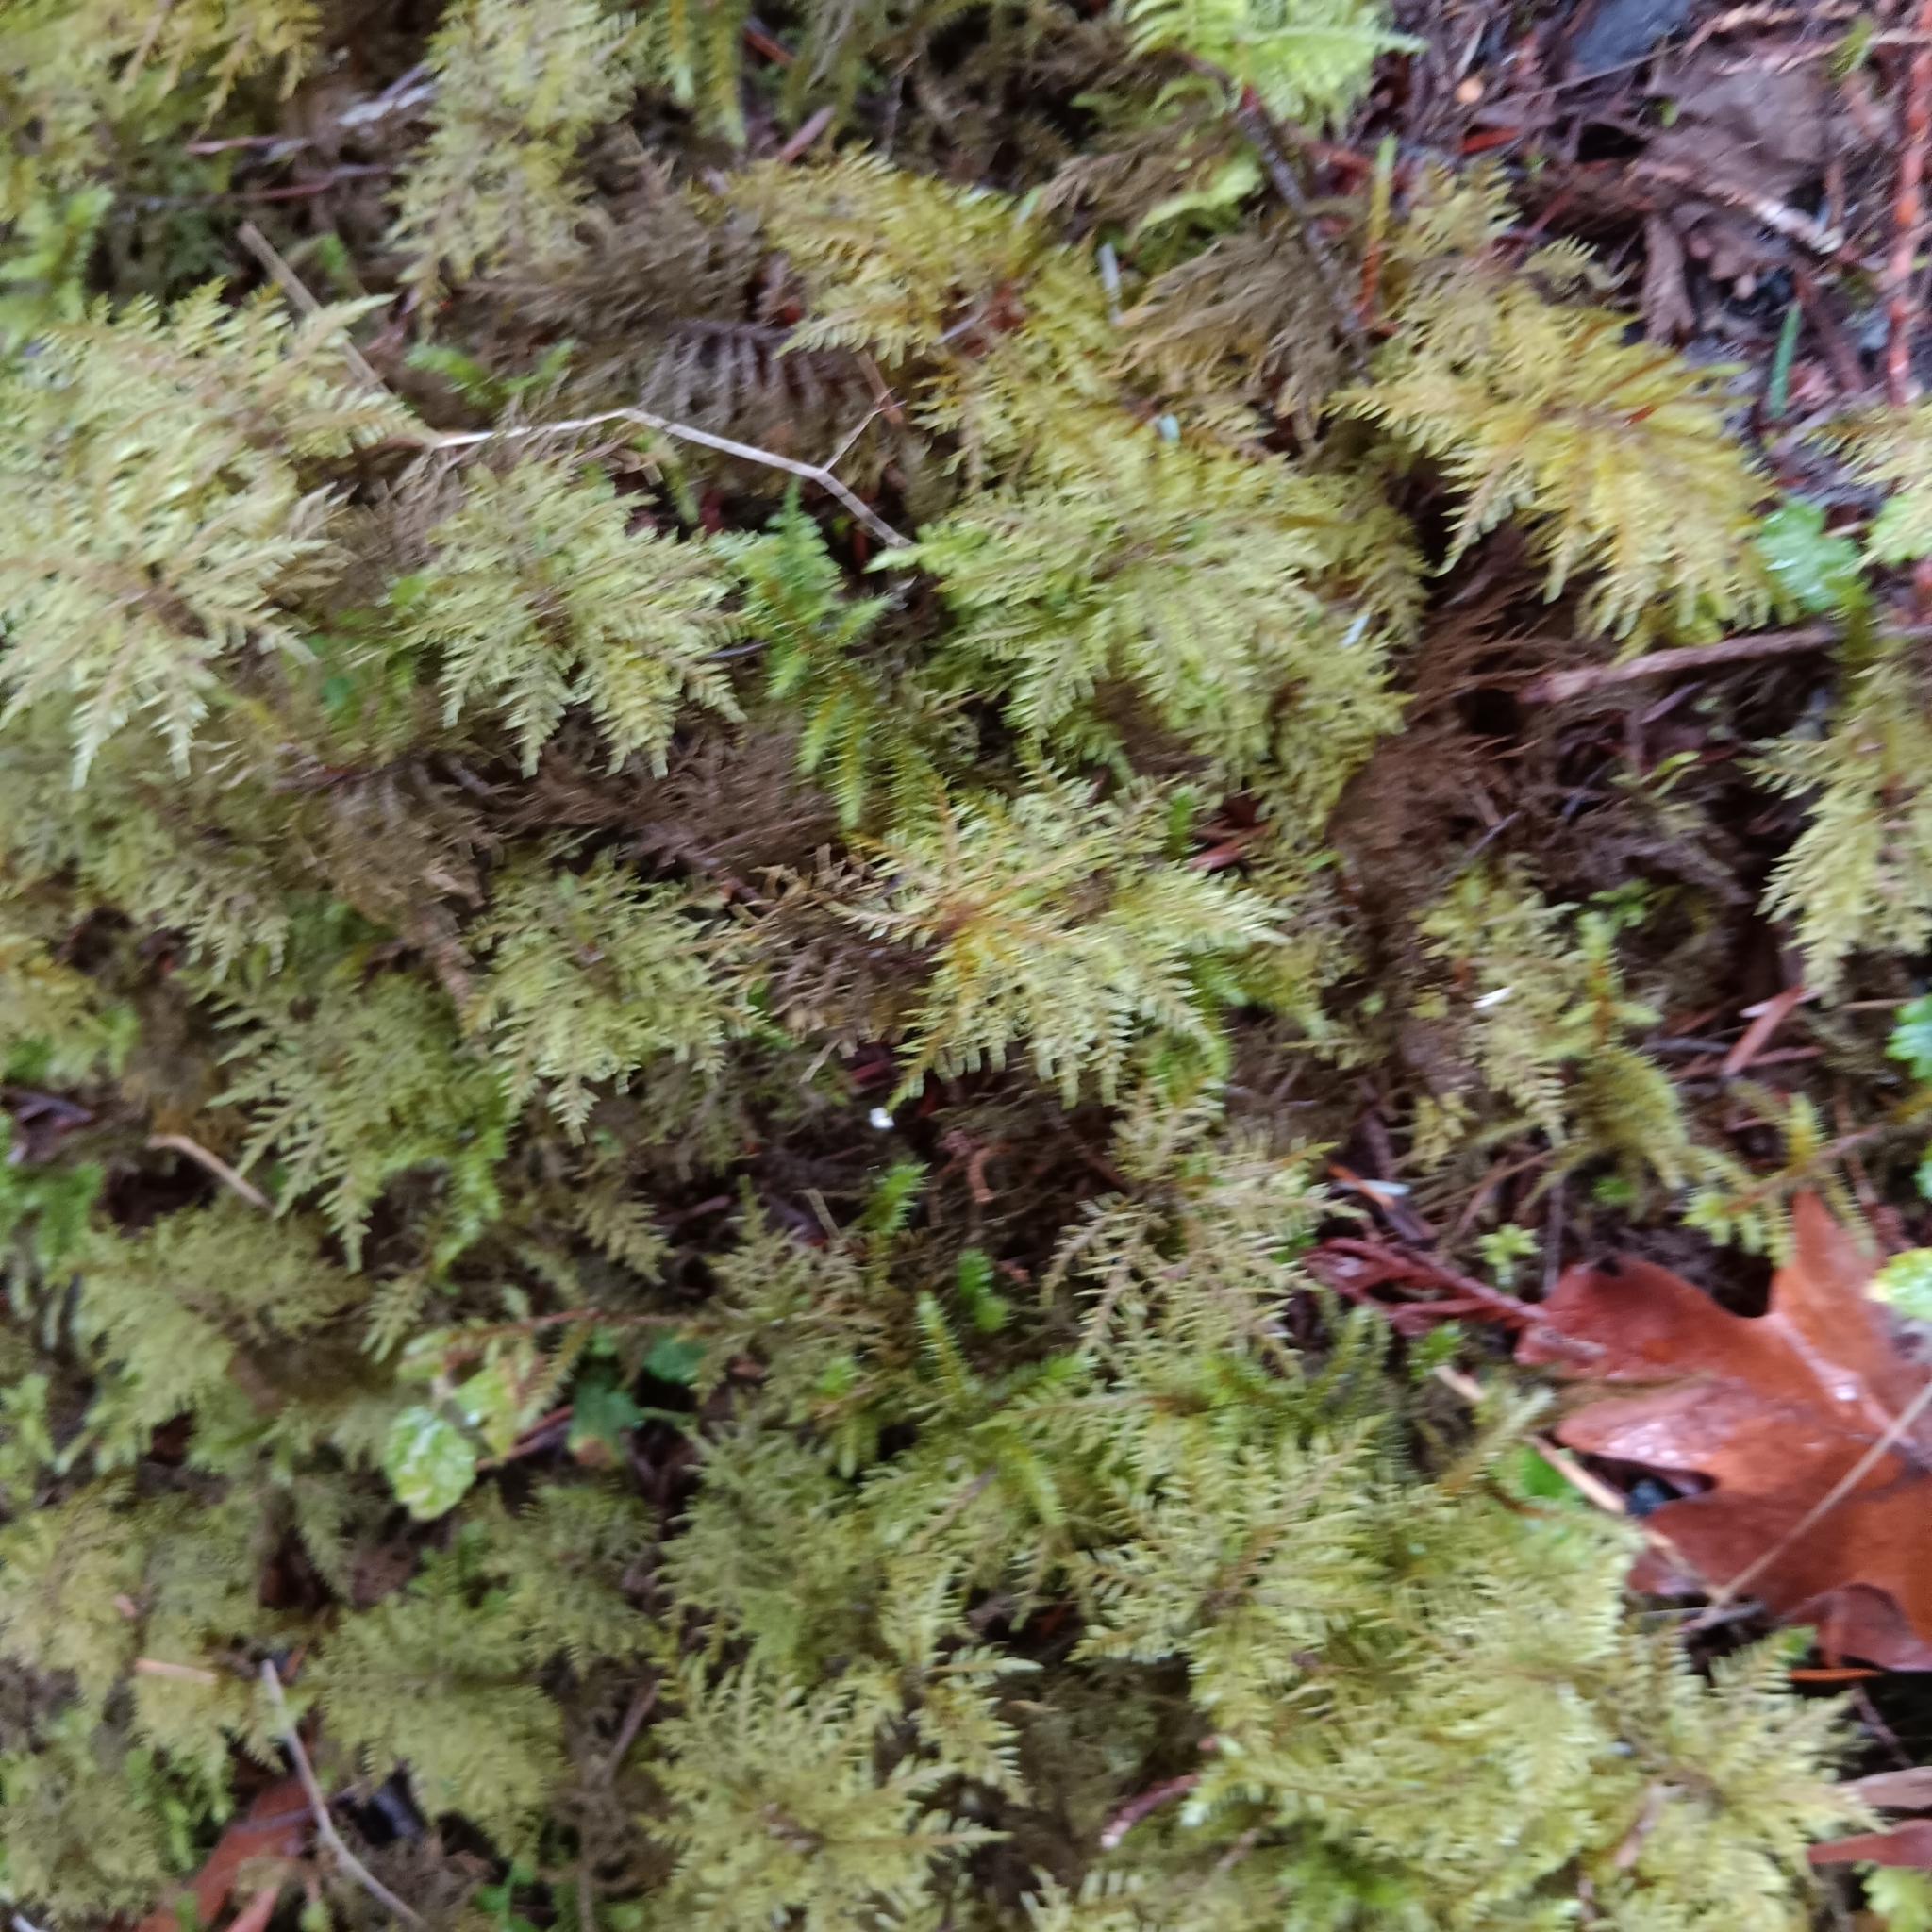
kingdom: Plantae
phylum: Bryophyta
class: Bryopsida
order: Hypnales
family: Hylocomiaceae
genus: Hylocomium
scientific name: Hylocomium splendens
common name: Stairstep moss
